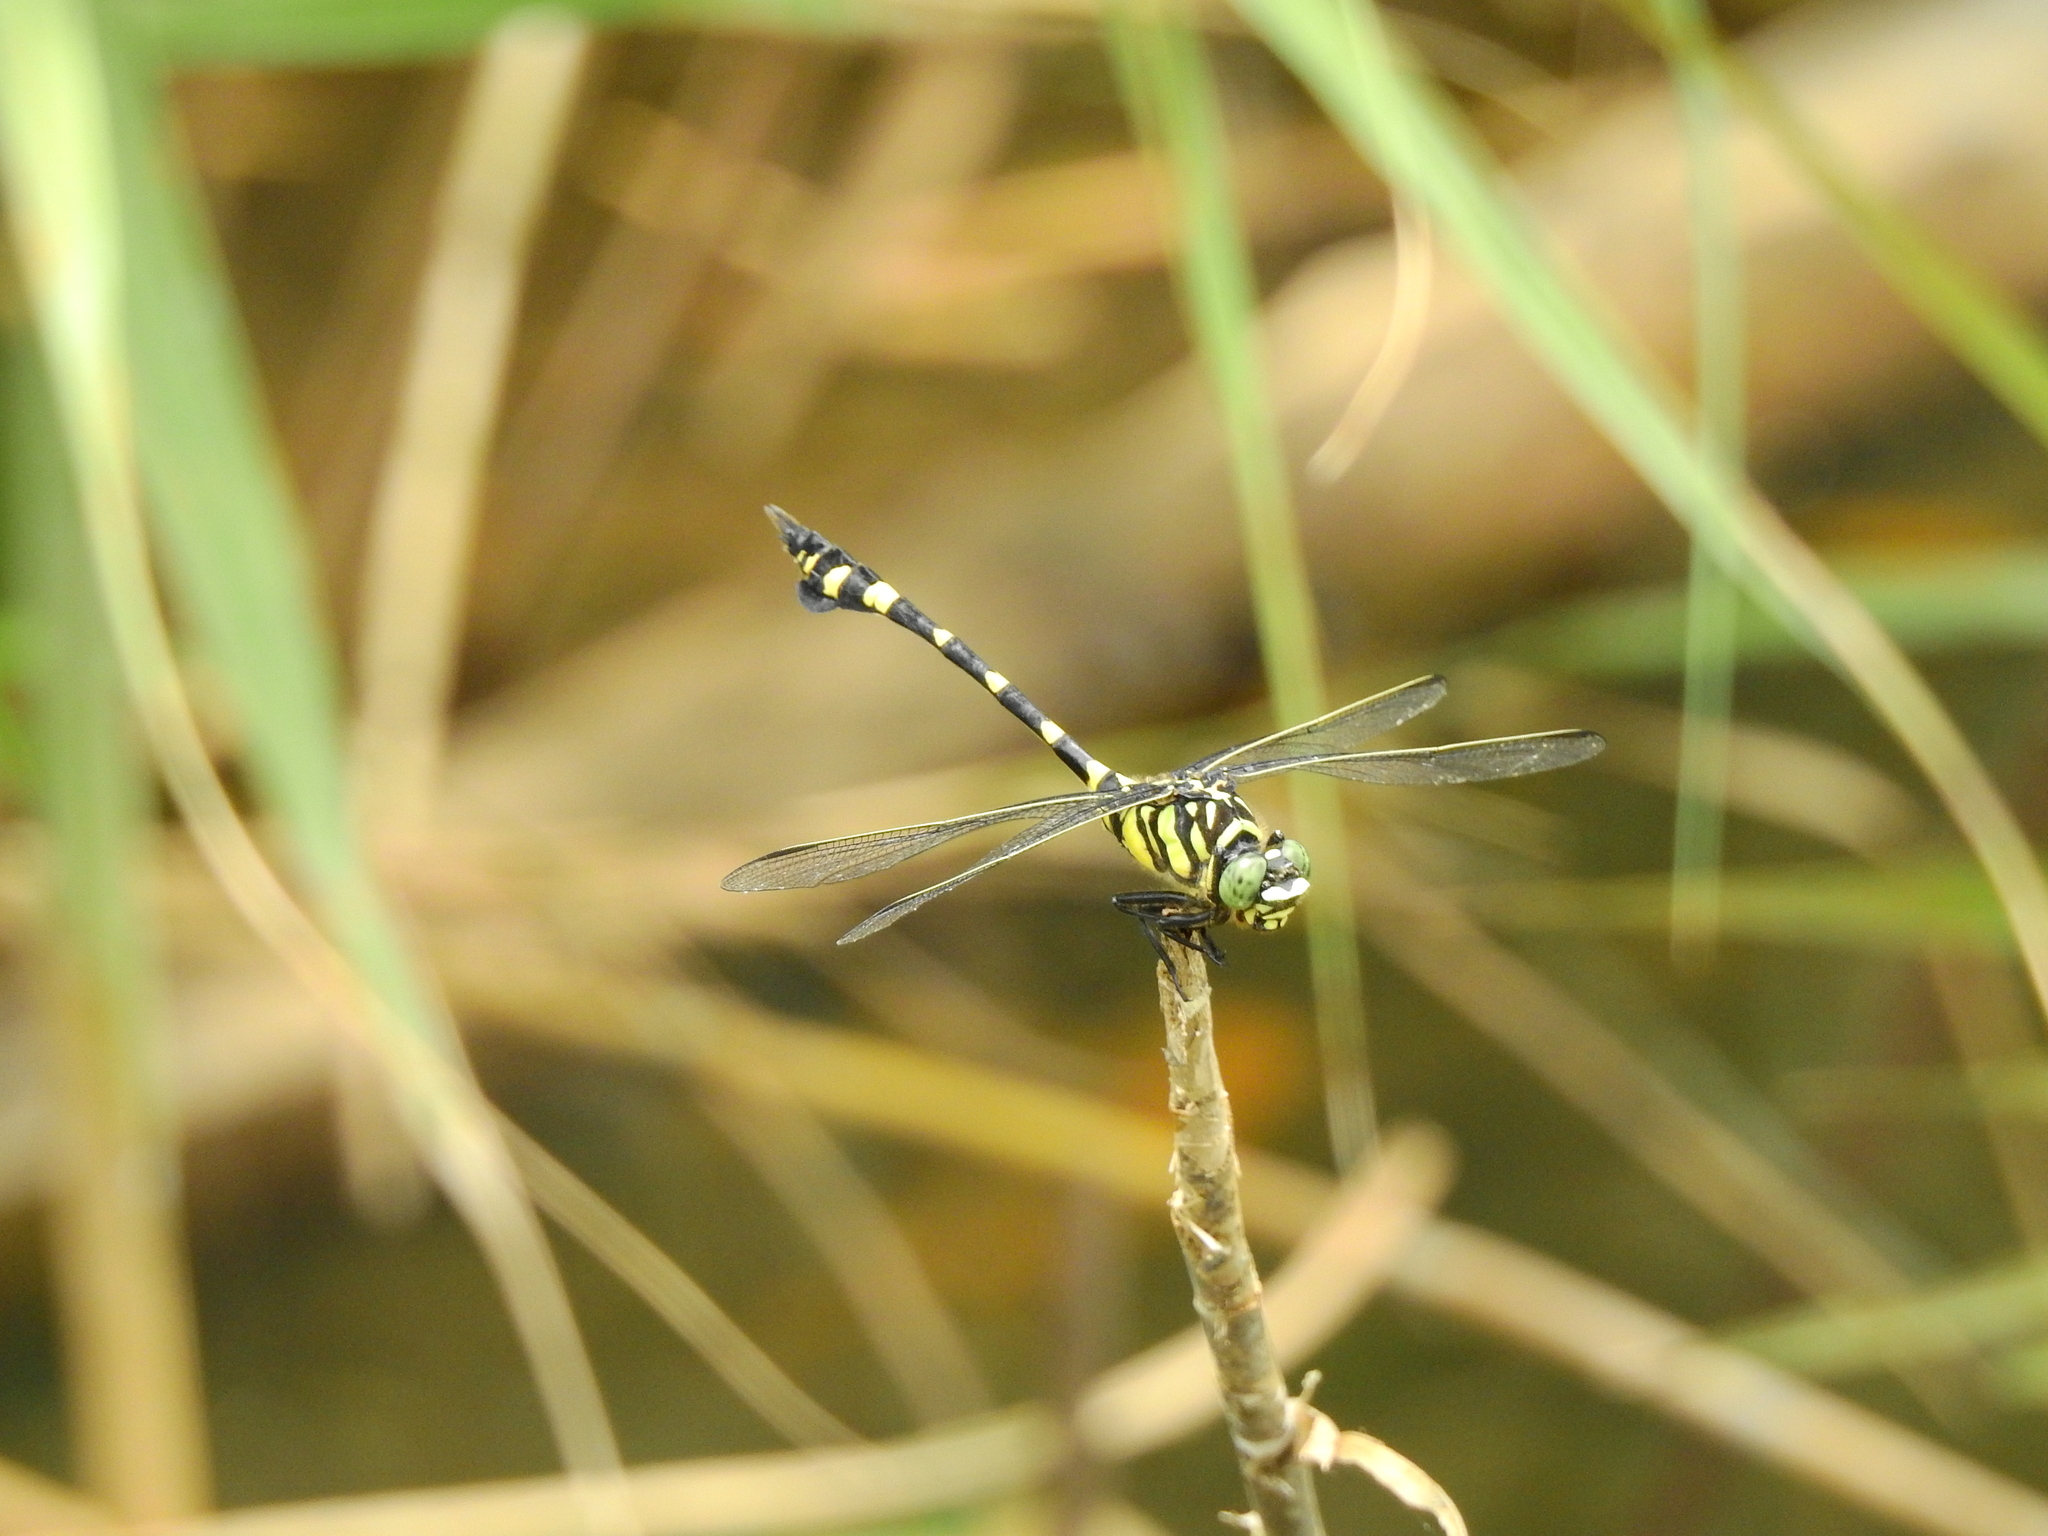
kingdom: Animalia
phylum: Arthropoda
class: Insecta
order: Odonata
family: Gomphidae
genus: Ictinogomphus
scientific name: Ictinogomphus rapax
